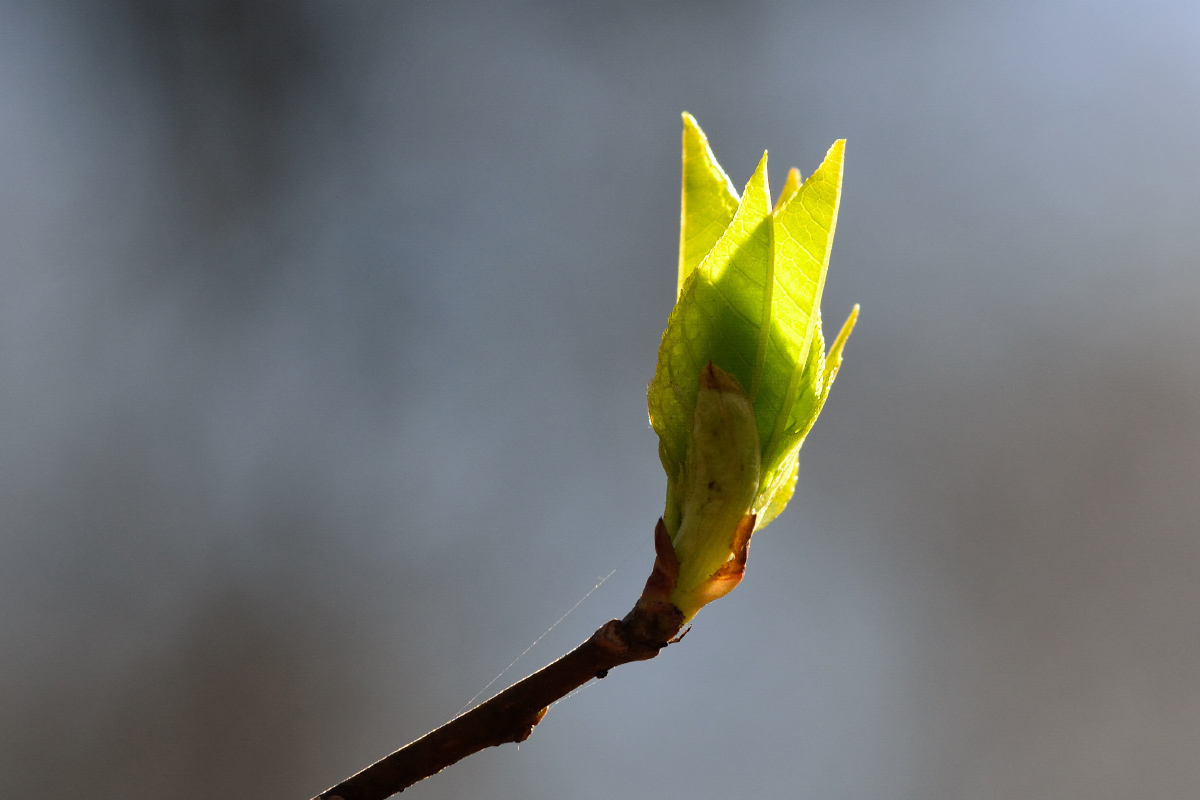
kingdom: Plantae
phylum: Tracheophyta
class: Magnoliopsida
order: Rosales
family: Rosaceae
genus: Prunus
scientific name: Prunus padus
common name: Bird cherry
